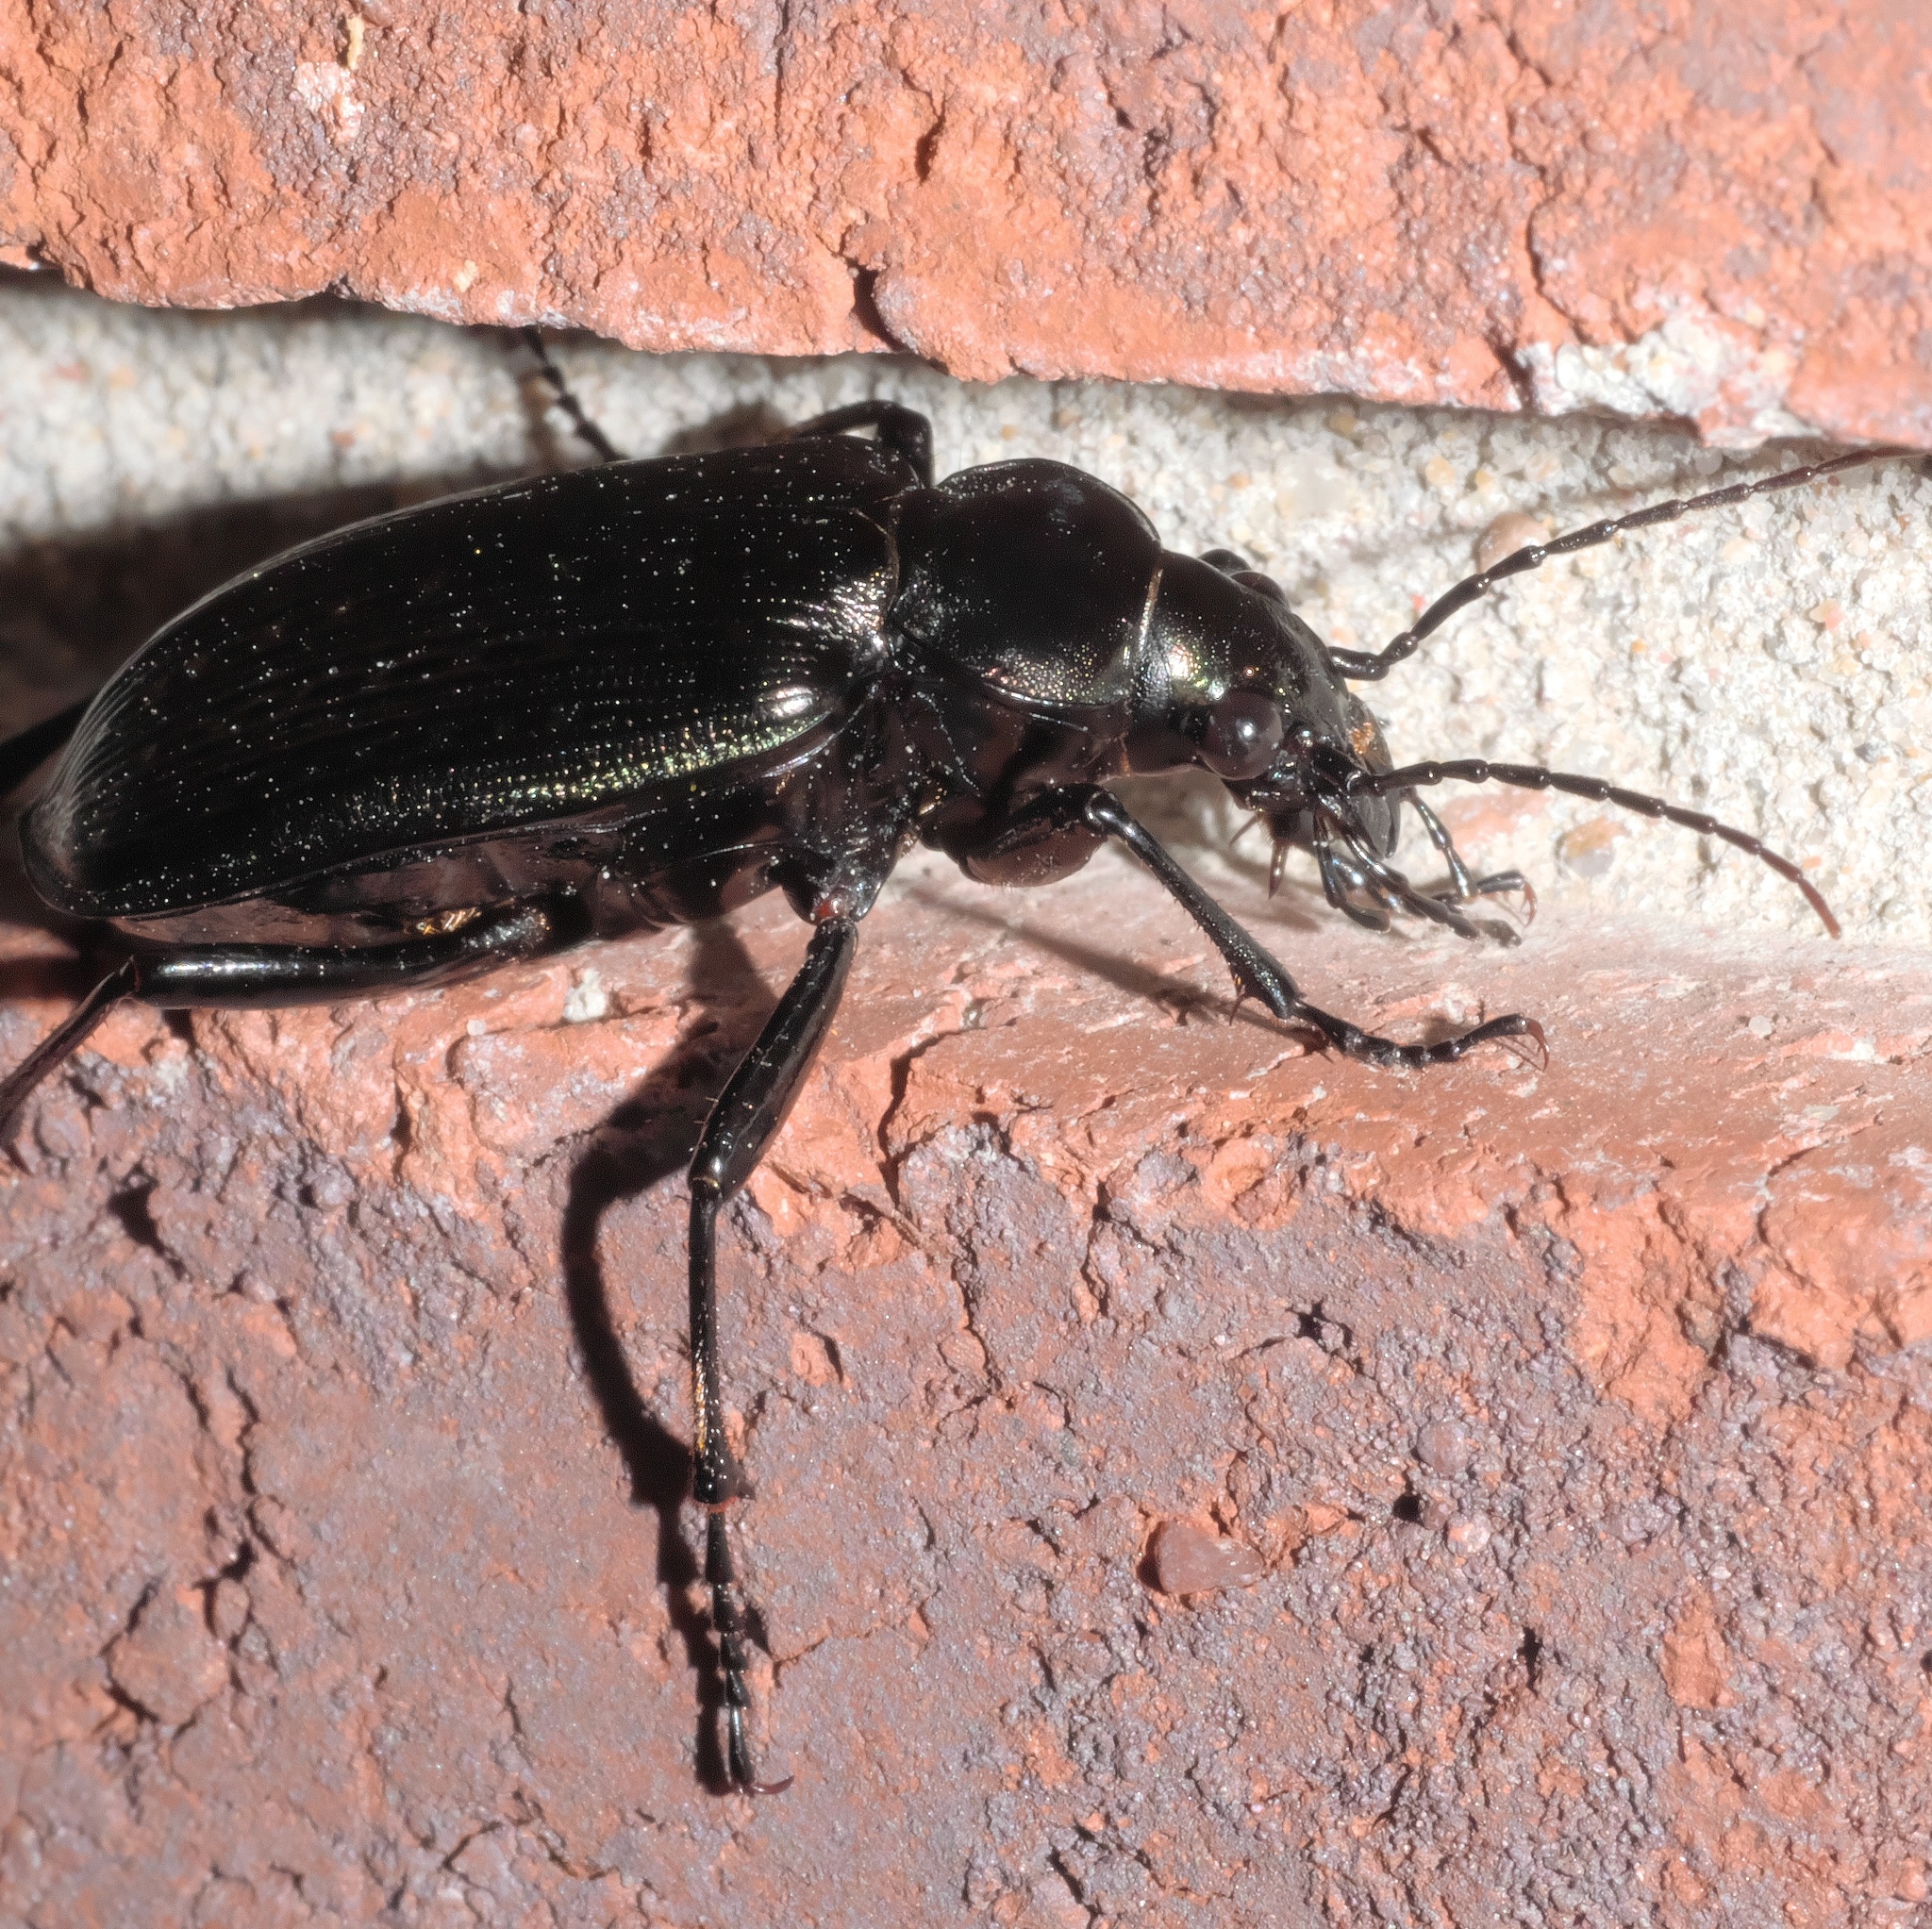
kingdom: Animalia
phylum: Arthropoda
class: Insecta
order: Coleoptera
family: Carabidae
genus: Calosoma
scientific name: Calosoma sayi
